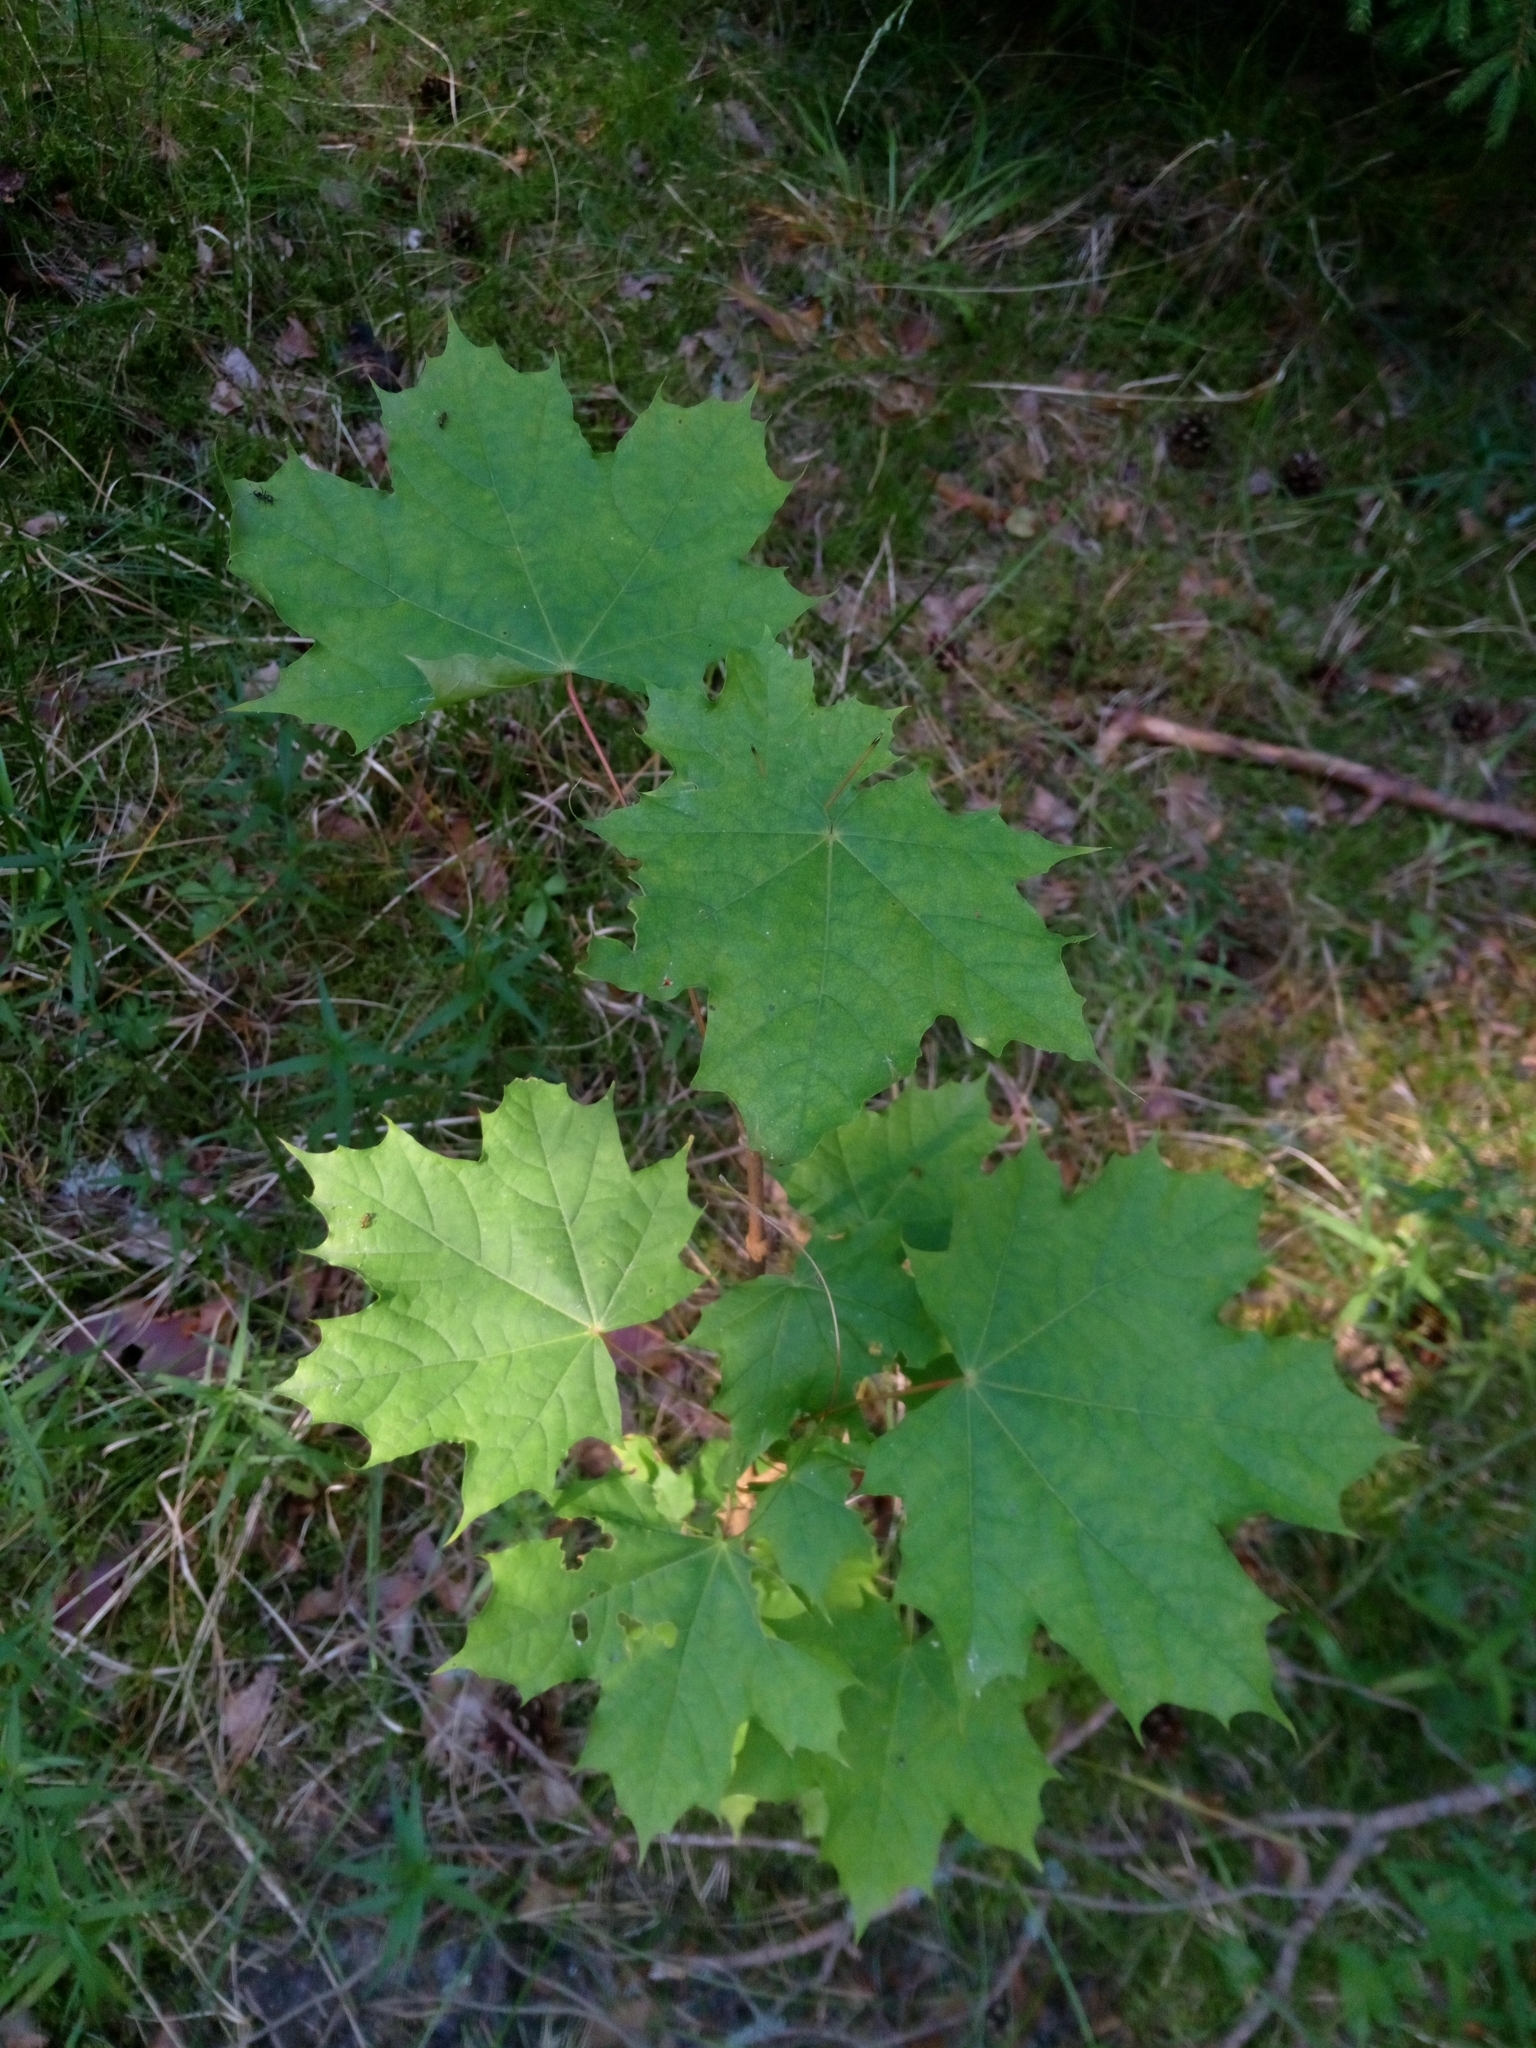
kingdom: Plantae
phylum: Tracheophyta
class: Magnoliopsida
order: Sapindales
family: Sapindaceae
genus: Acer
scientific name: Acer platanoides
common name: Norway maple
